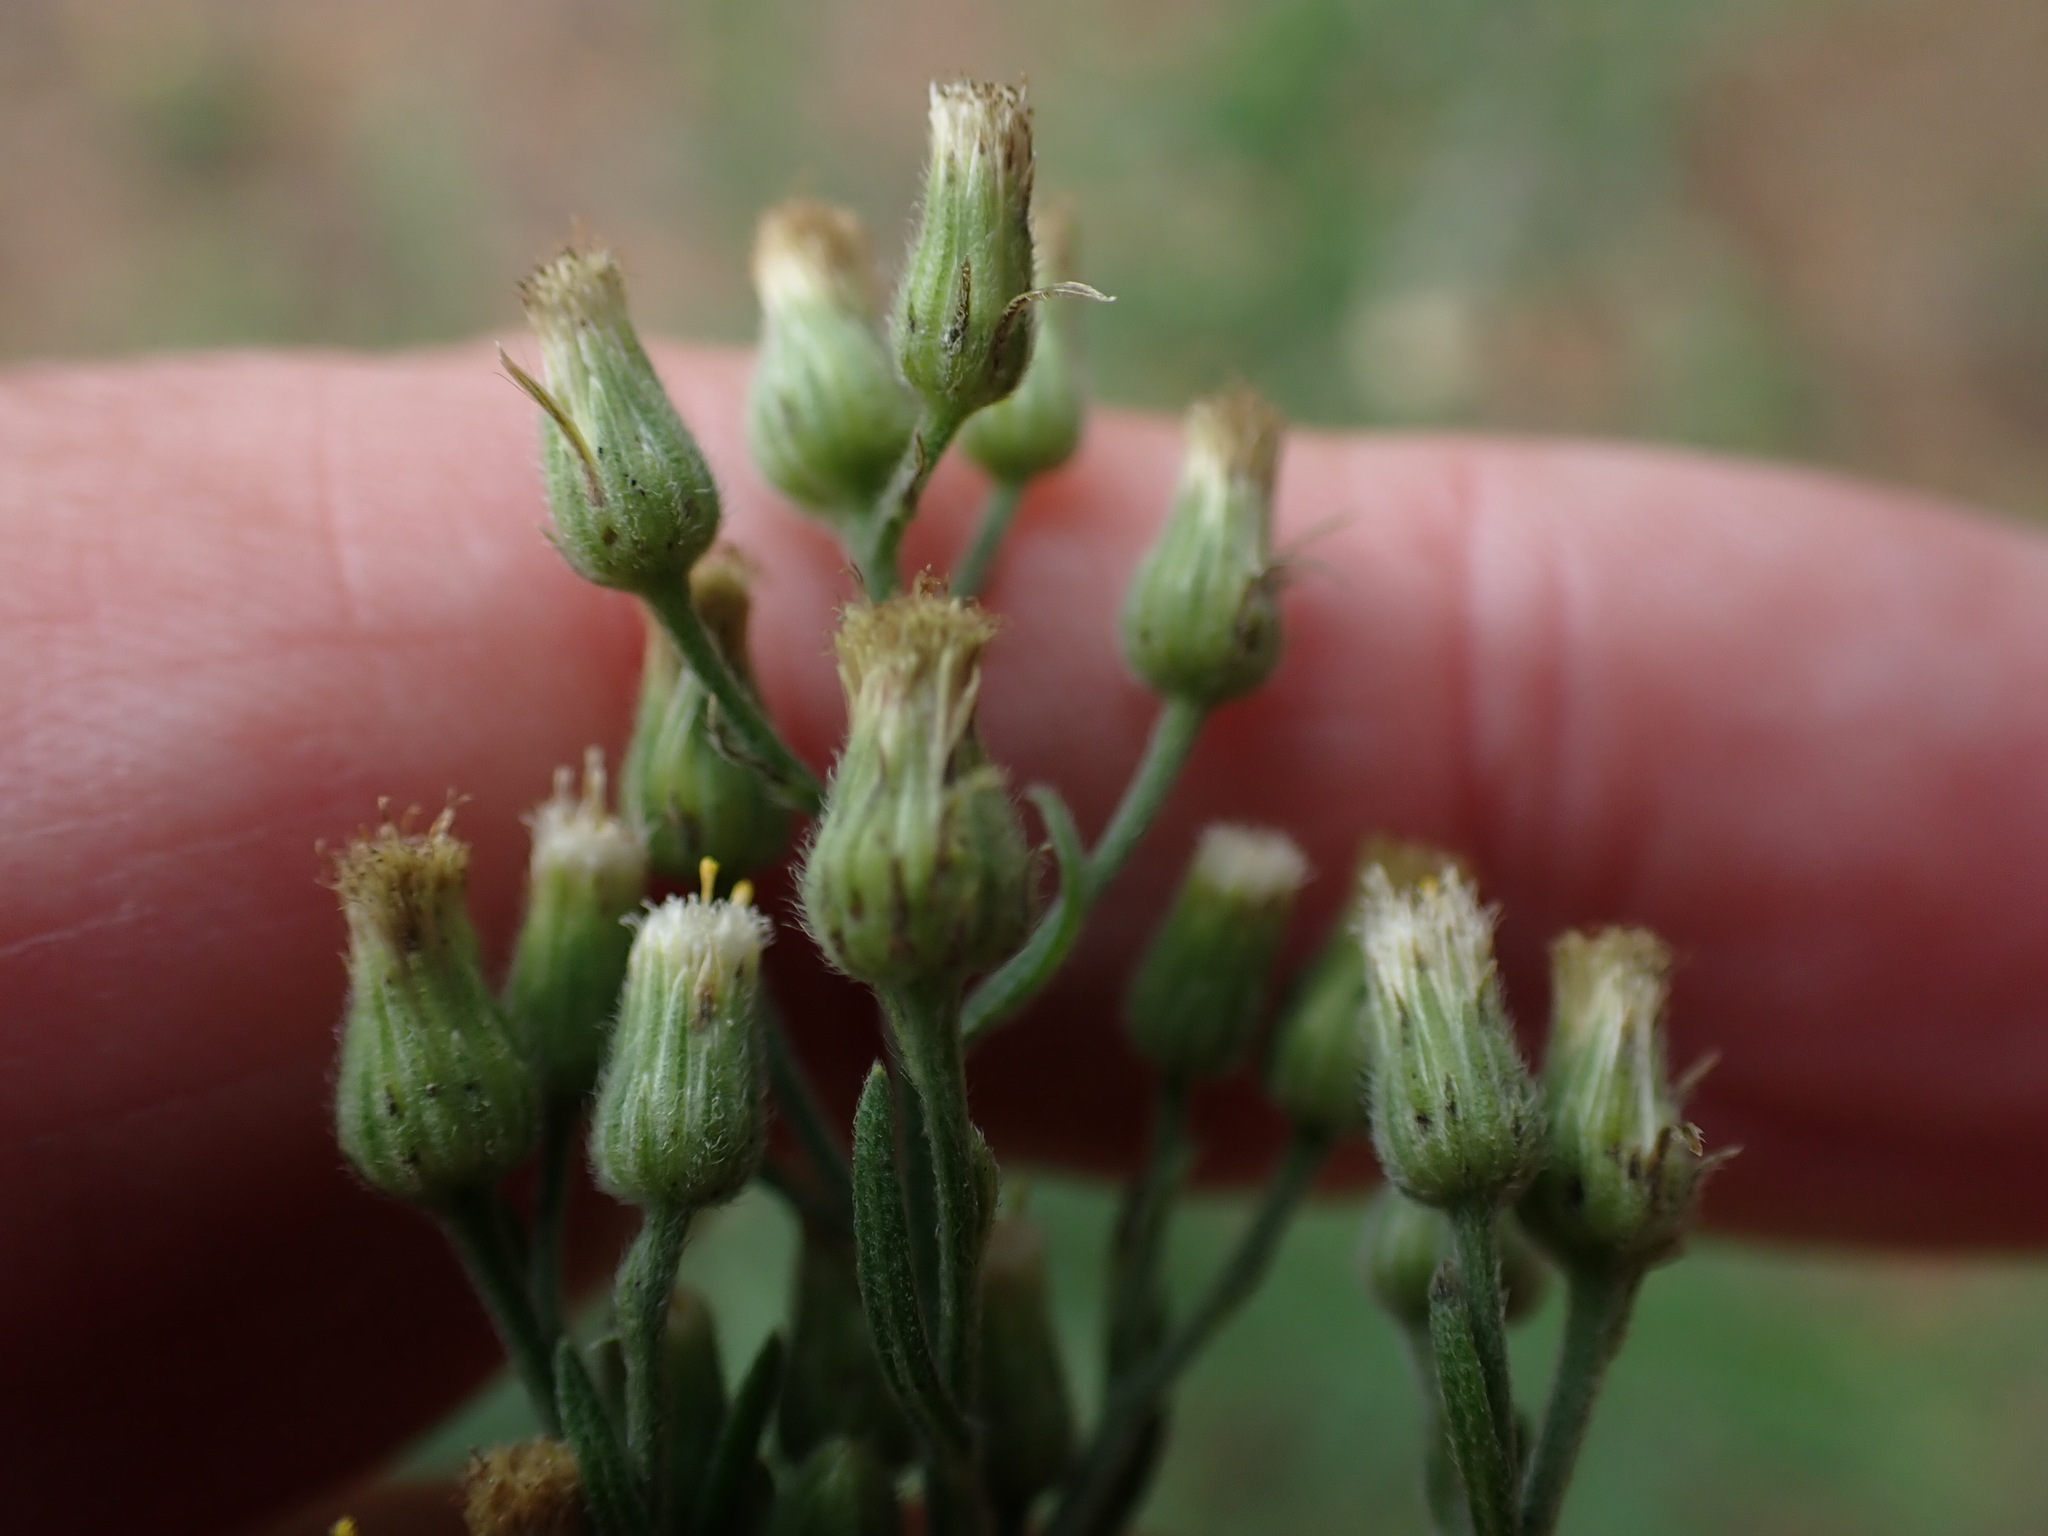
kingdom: Plantae
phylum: Tracheophyta
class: Magnoliopsida
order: Asterales
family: Asteraceae
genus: Erigeron
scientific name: Erigeron sumatrensis
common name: Daisy
